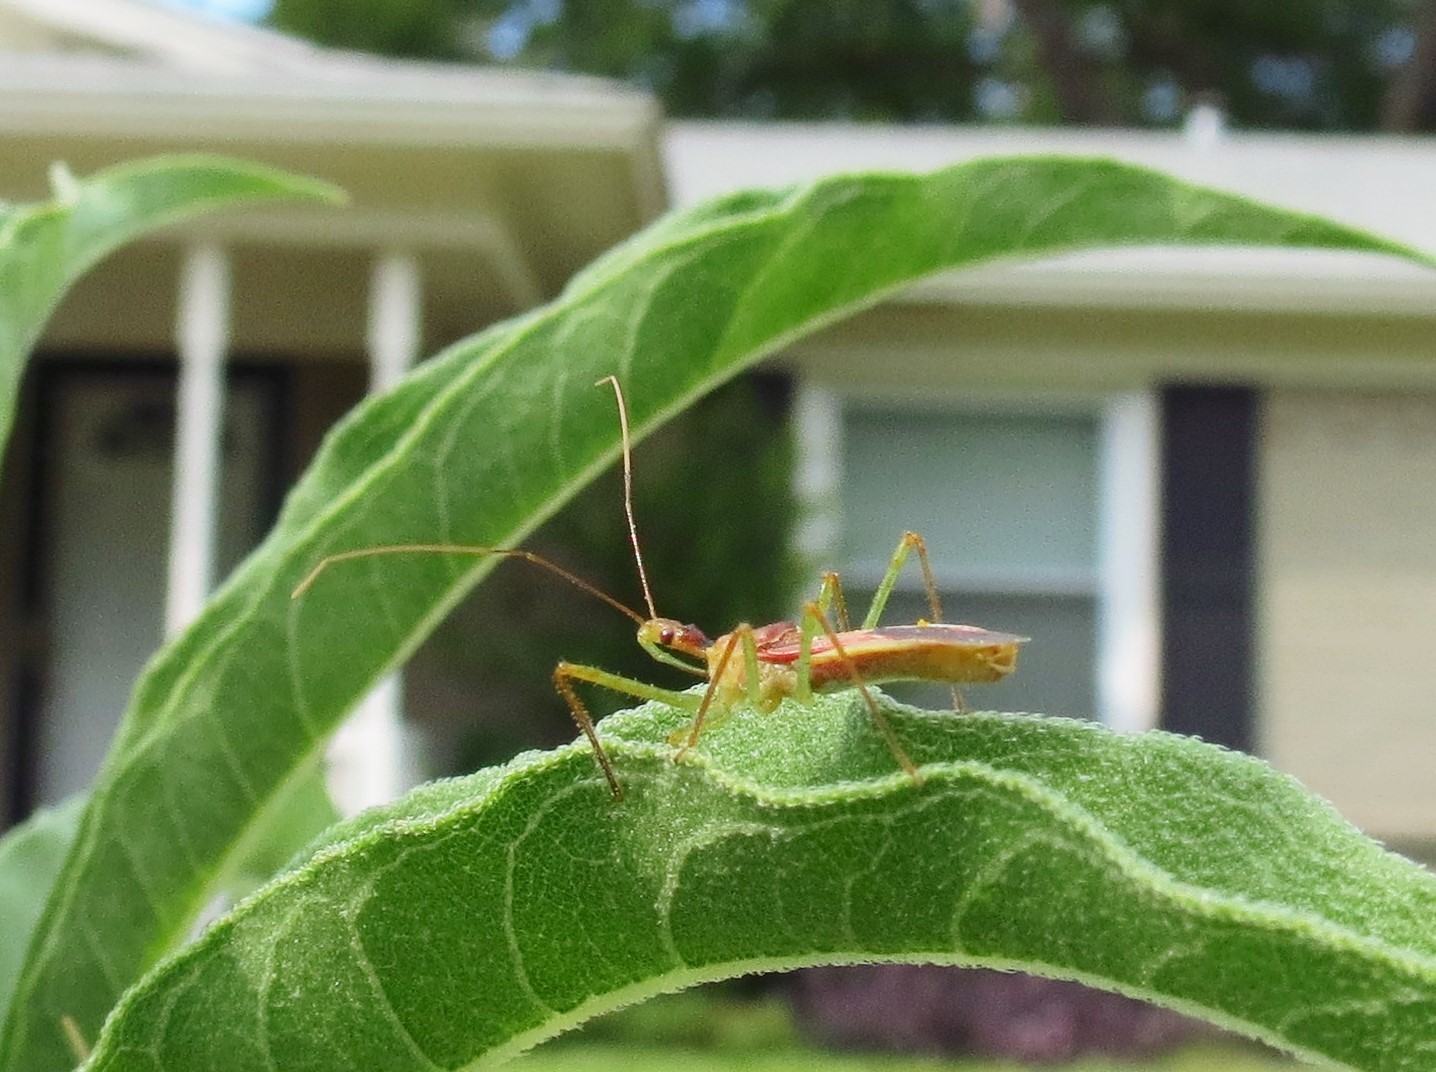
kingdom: Animalia
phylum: Arthropoda
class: Insecta
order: Hemiptera
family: Reduviidae
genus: Zelus
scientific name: Zelus renardii
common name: Assassin bug
